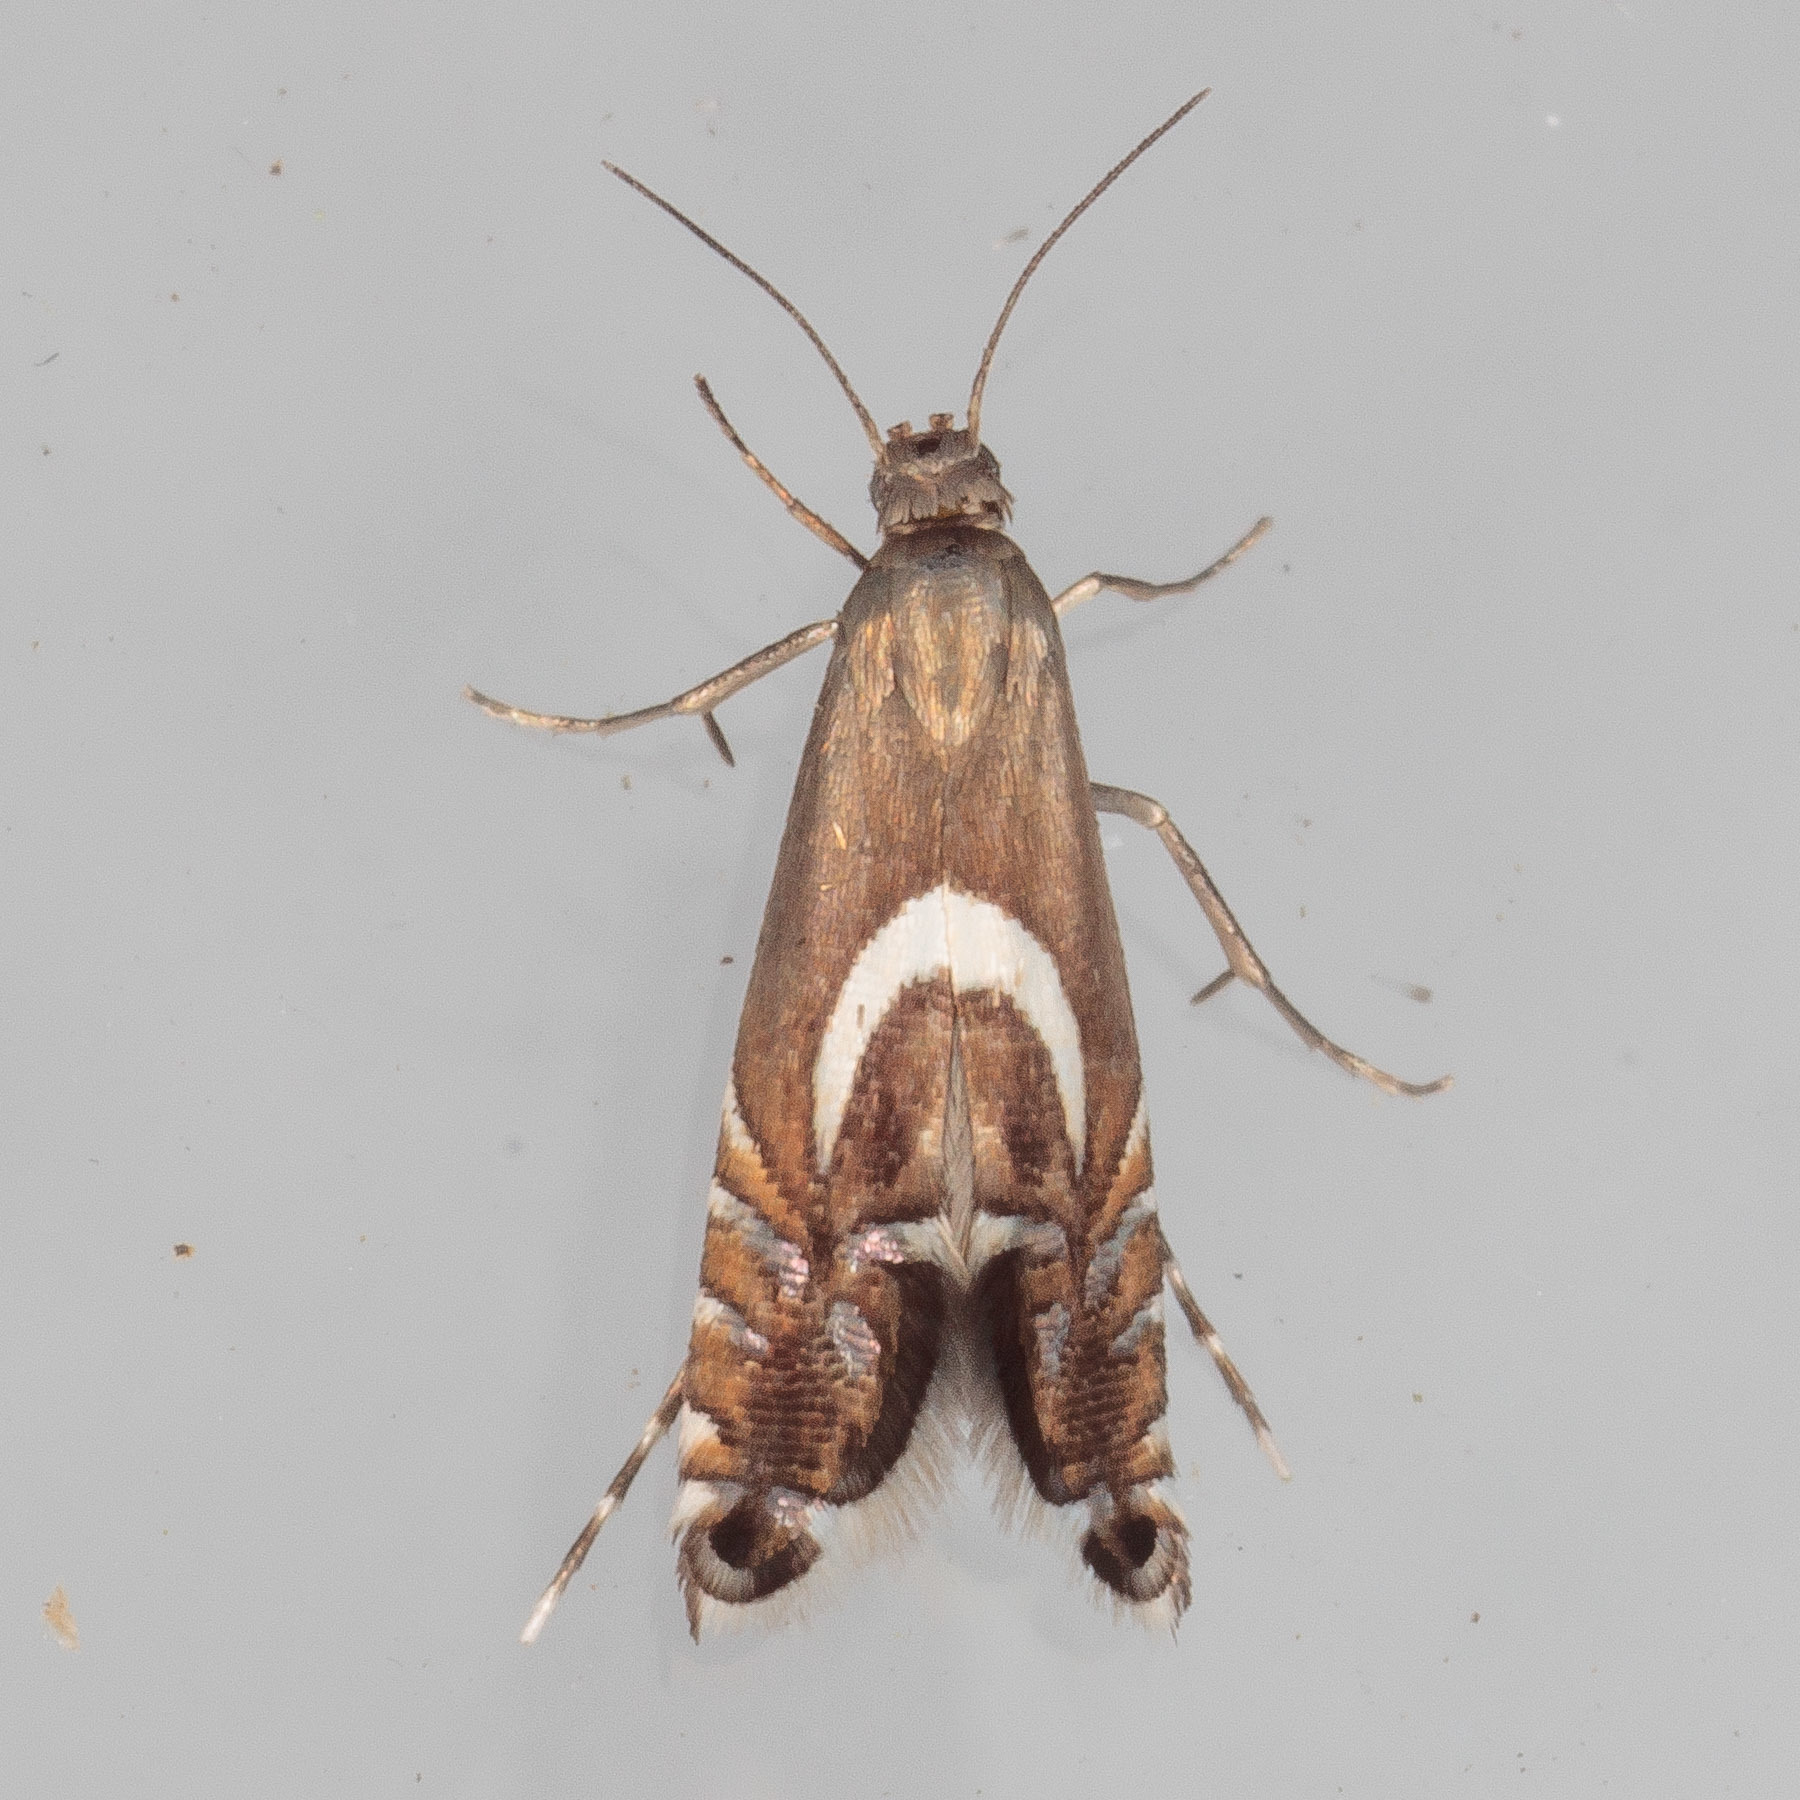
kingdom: Animalia
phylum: Arthropoda
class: Insecta
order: Lepidoptera
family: Glyphipterigidae
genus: Glyphipterix
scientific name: Glyphipterix Diploschizia impigritella
